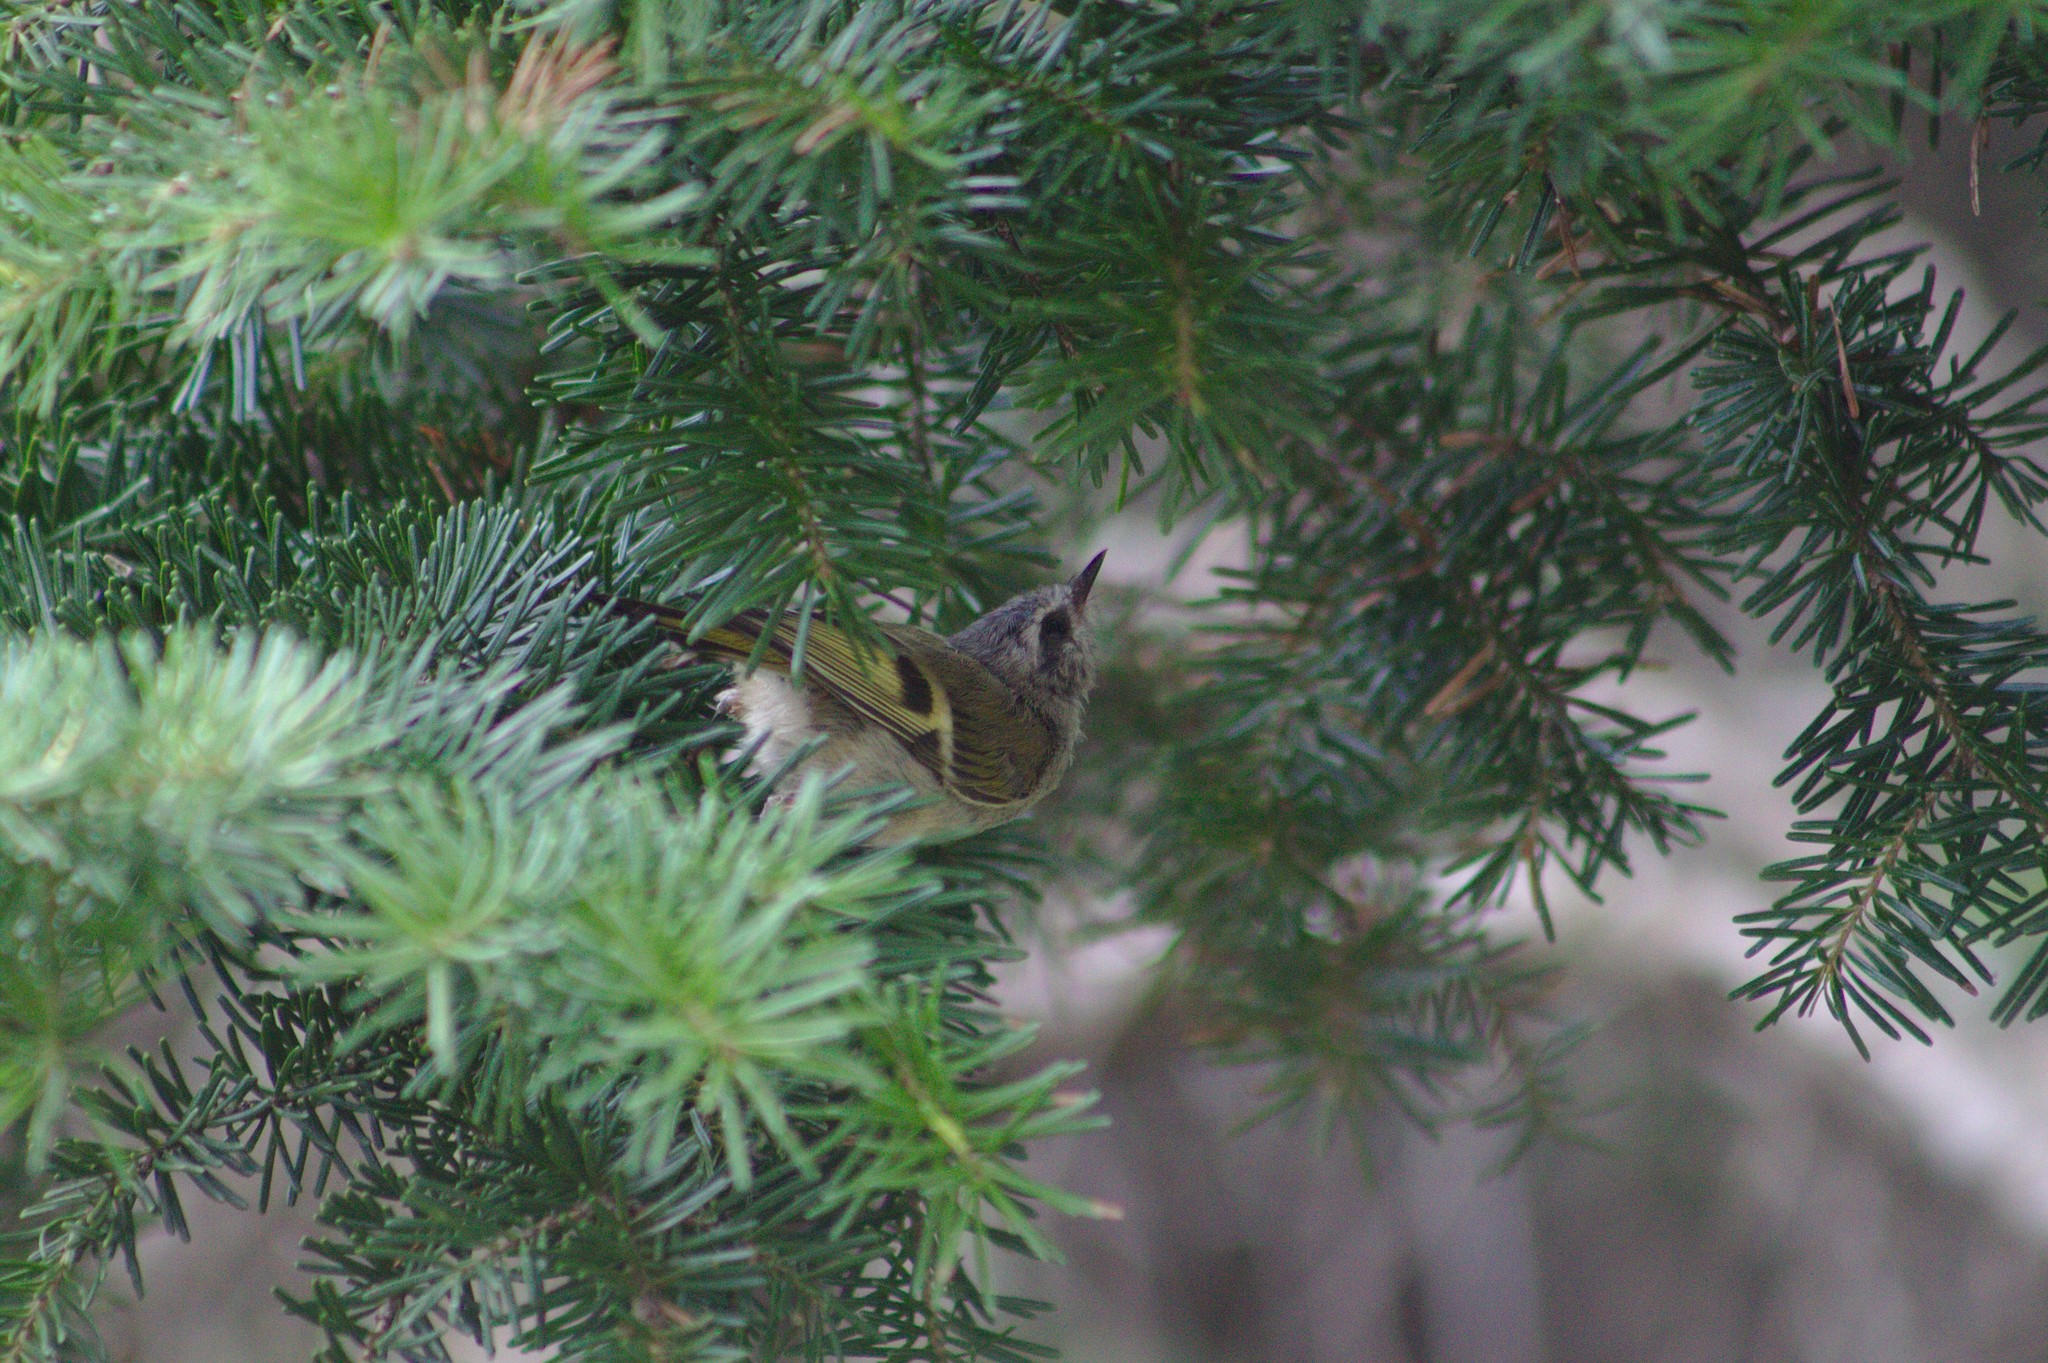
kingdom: Animalia
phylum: Chordata
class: Aves
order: Passeriformes
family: Regulidae
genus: Regulus
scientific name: Regulus satrapa
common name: Golden-crowned kinglet
